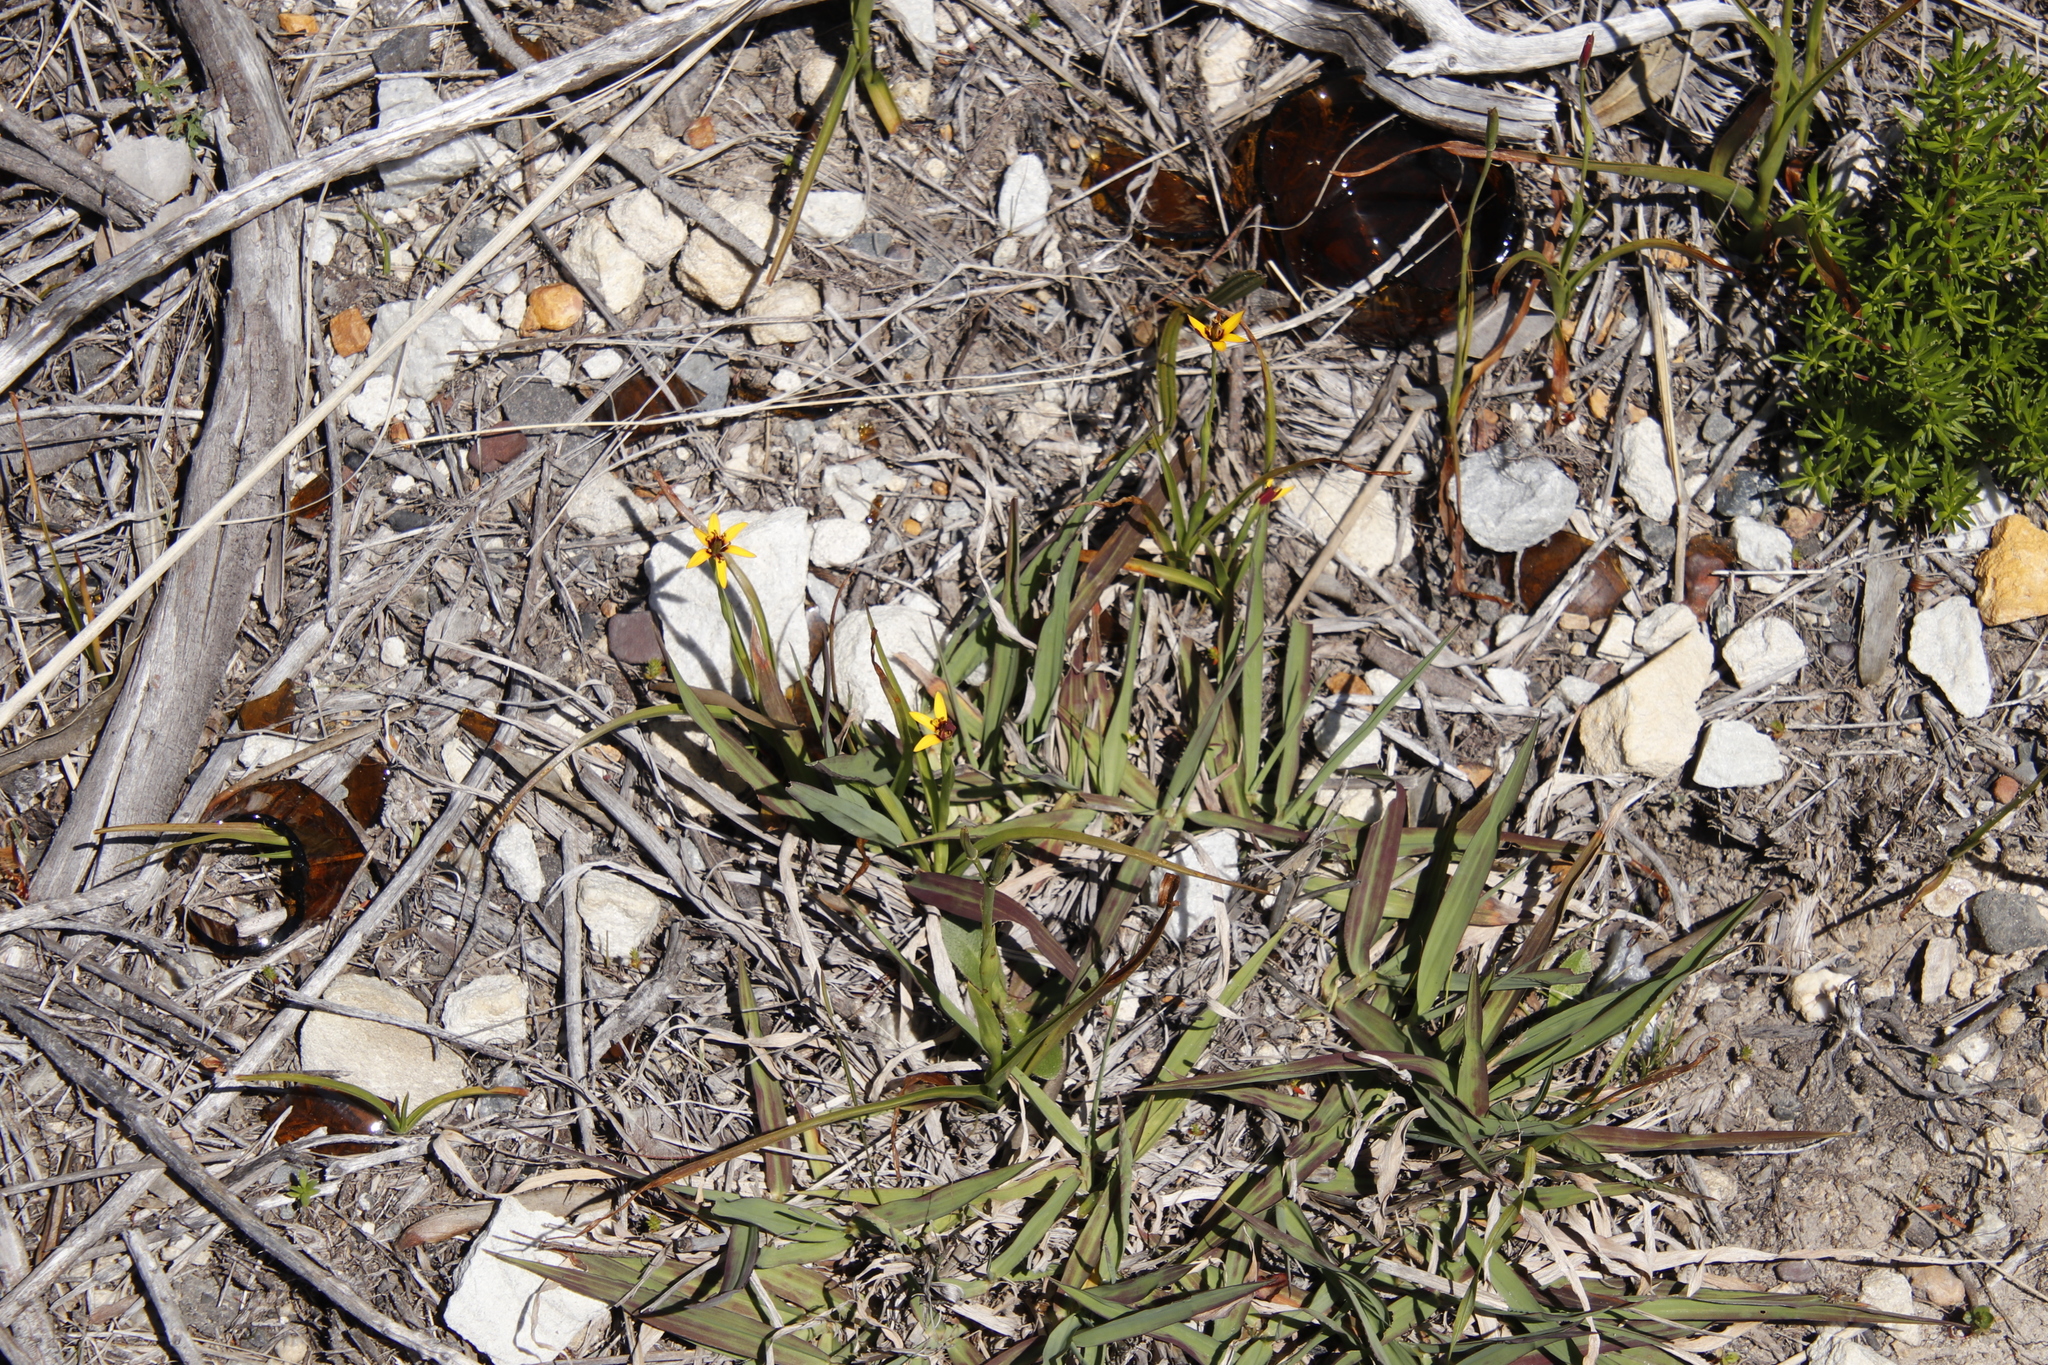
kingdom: Plantae
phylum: Tracheophyta
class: Liliopsida
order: Liliales
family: Colchicaceae
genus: Baeometra
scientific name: Baeometra uniflora
